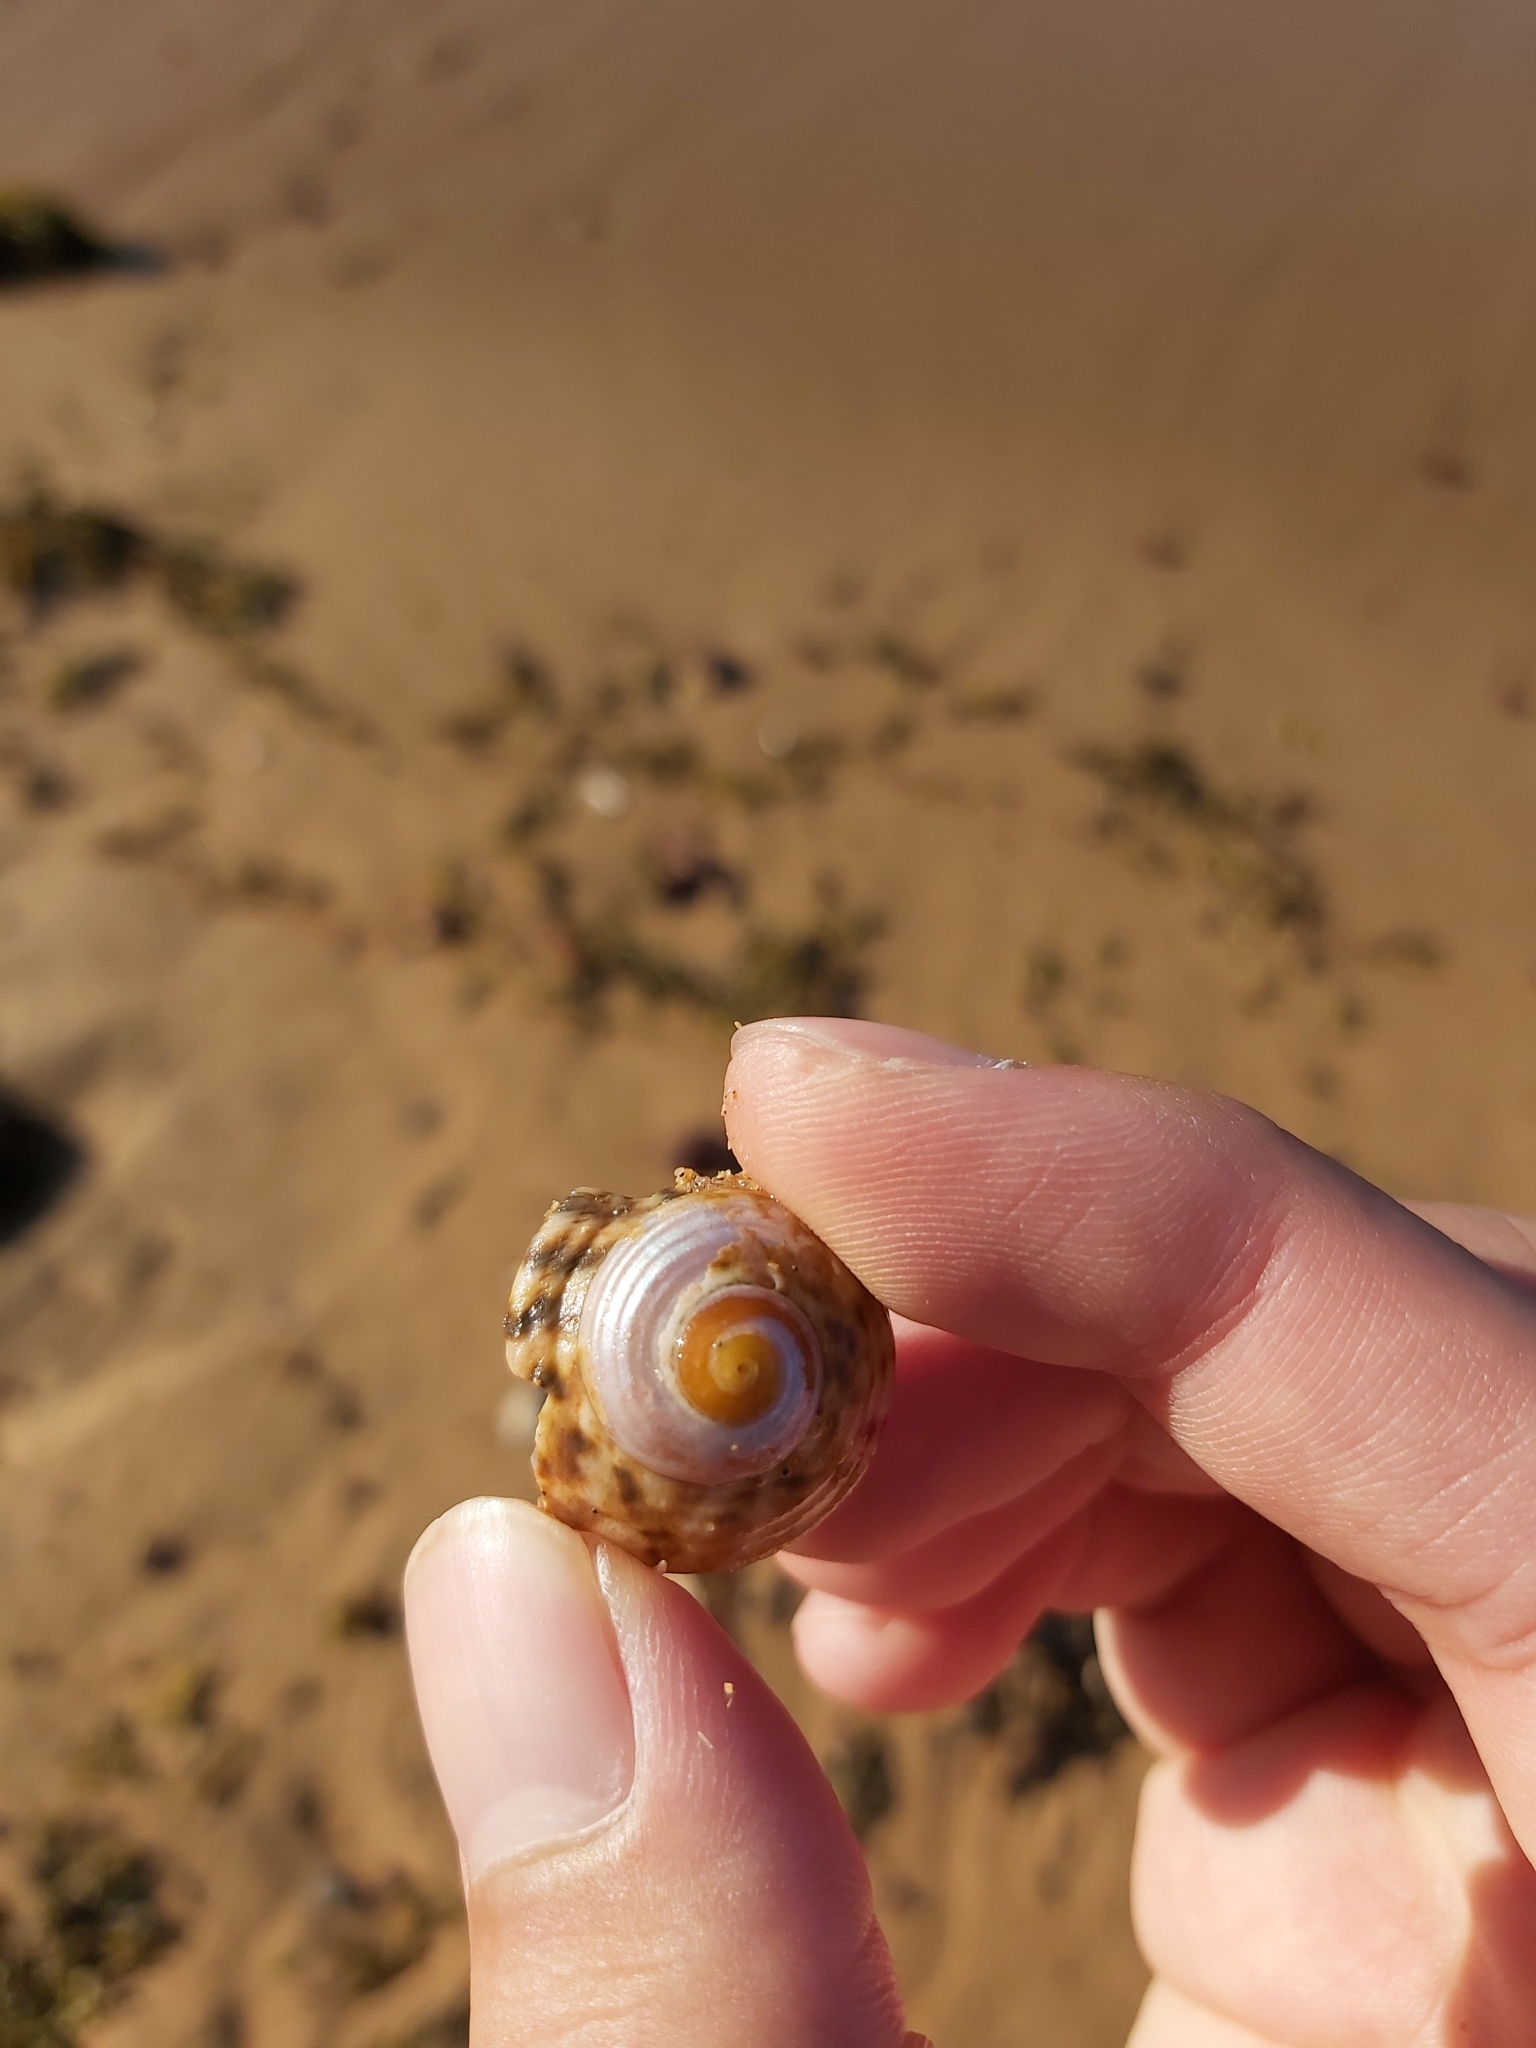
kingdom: Animalia
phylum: Mollusca
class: Gastropoda
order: Trochida
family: Turbinidae
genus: Lunella
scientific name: Lunella undulata
